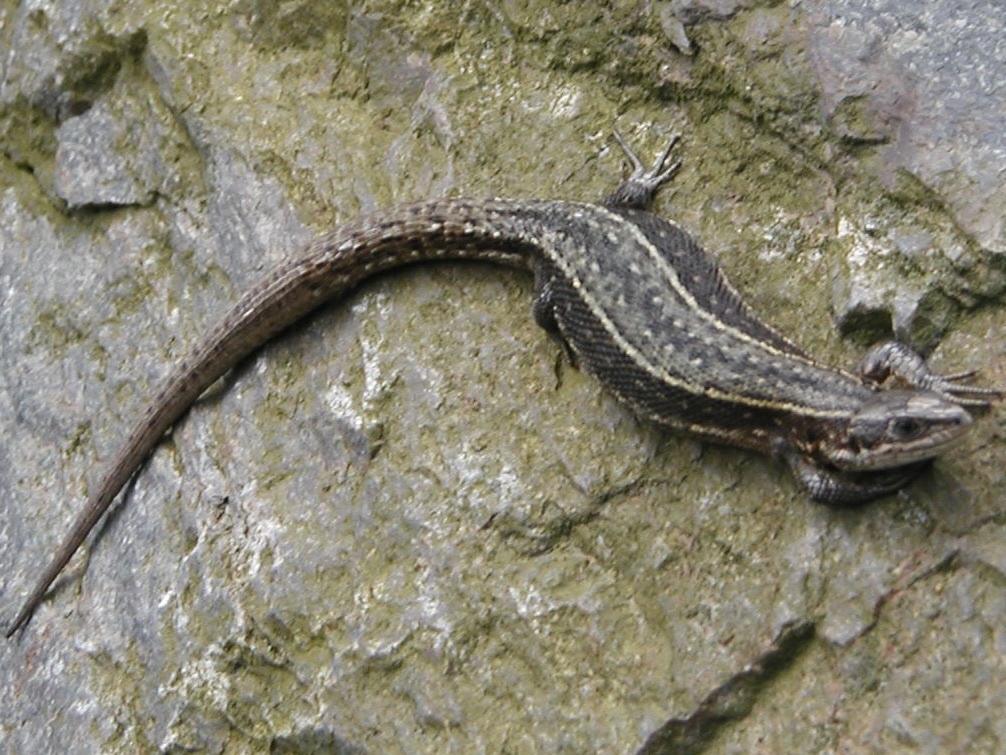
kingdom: Animalia
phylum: Chordata
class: Squamata
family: Lacertidae
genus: Zootoca
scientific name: Zootoca vivipara
